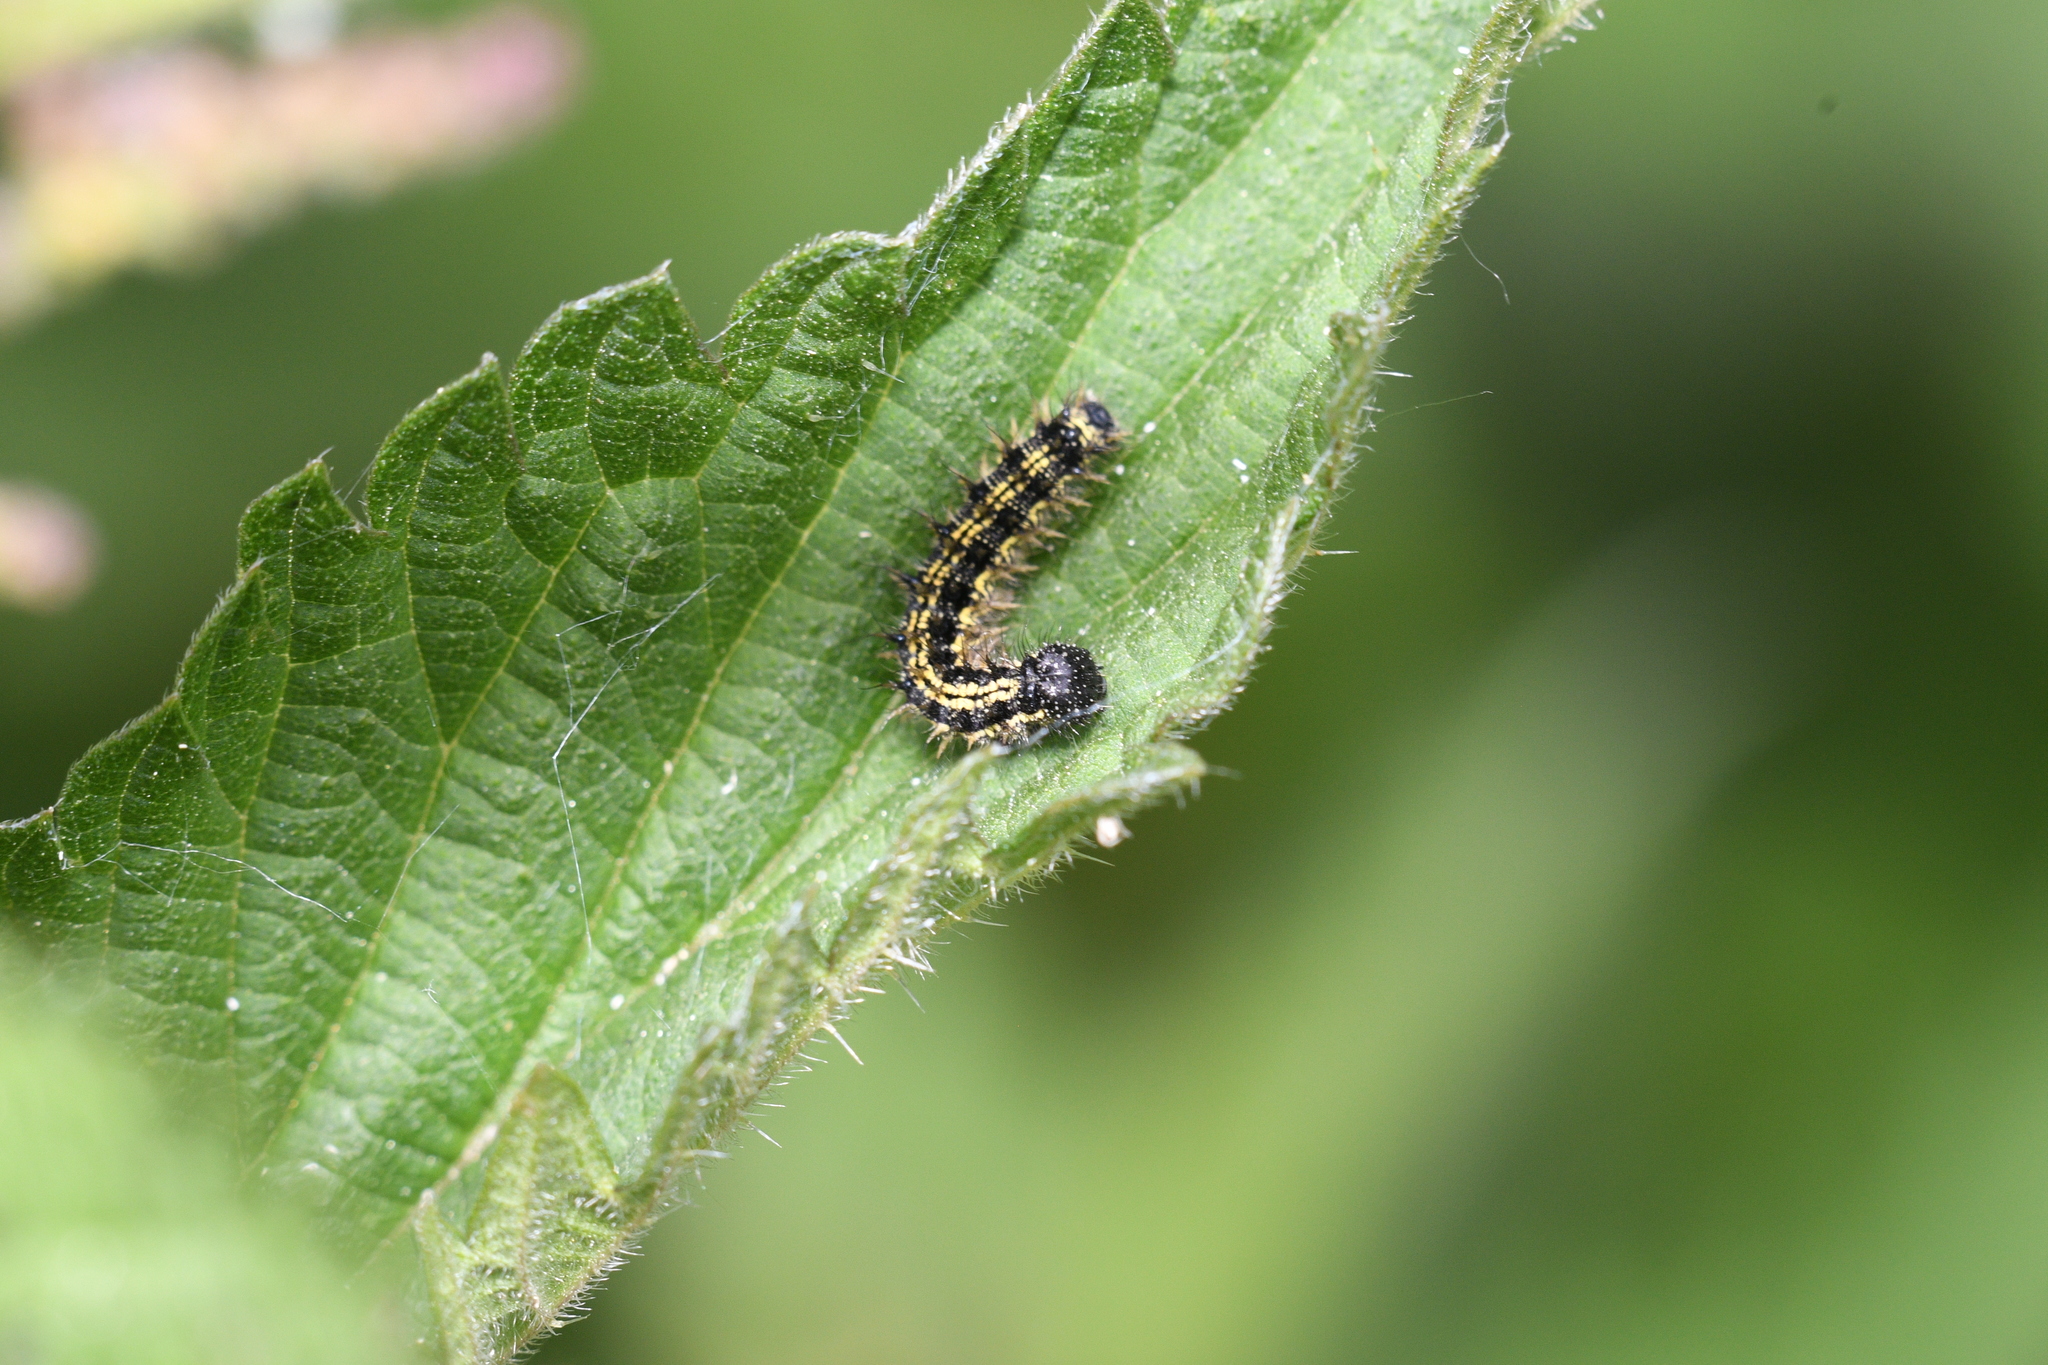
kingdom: Animalia
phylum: Arthropoda
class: Insecta
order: Lepidoptera
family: Nymphalidae
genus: Aglais
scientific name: Aglais urticae
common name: Small tortoiseshell
